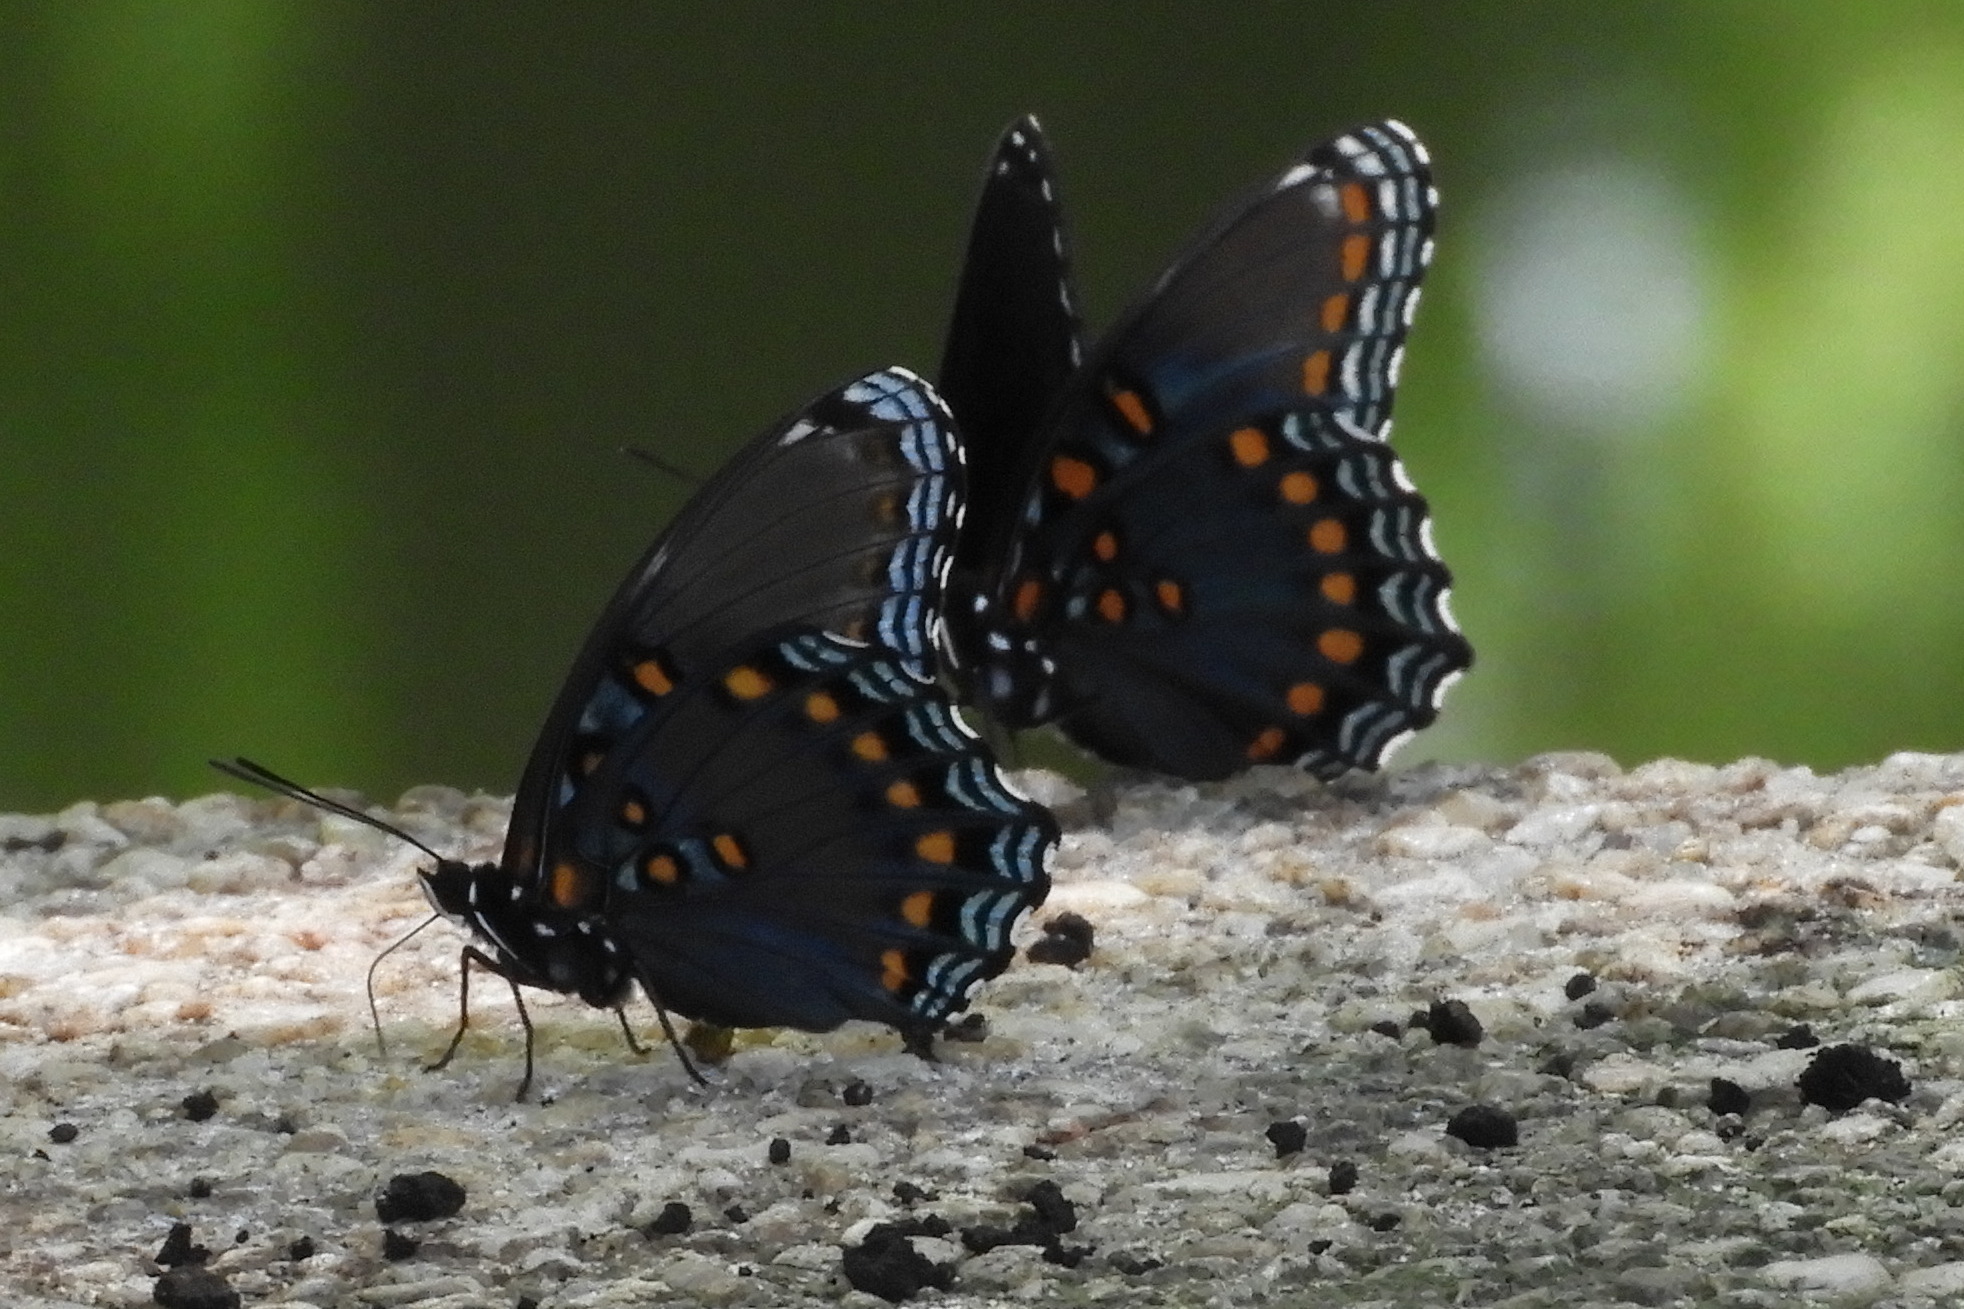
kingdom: Animalia
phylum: Arthropoda
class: Insecta
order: Lepidoptera
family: Nymphalidae
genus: Limenitis
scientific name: Limenitis astyanax
